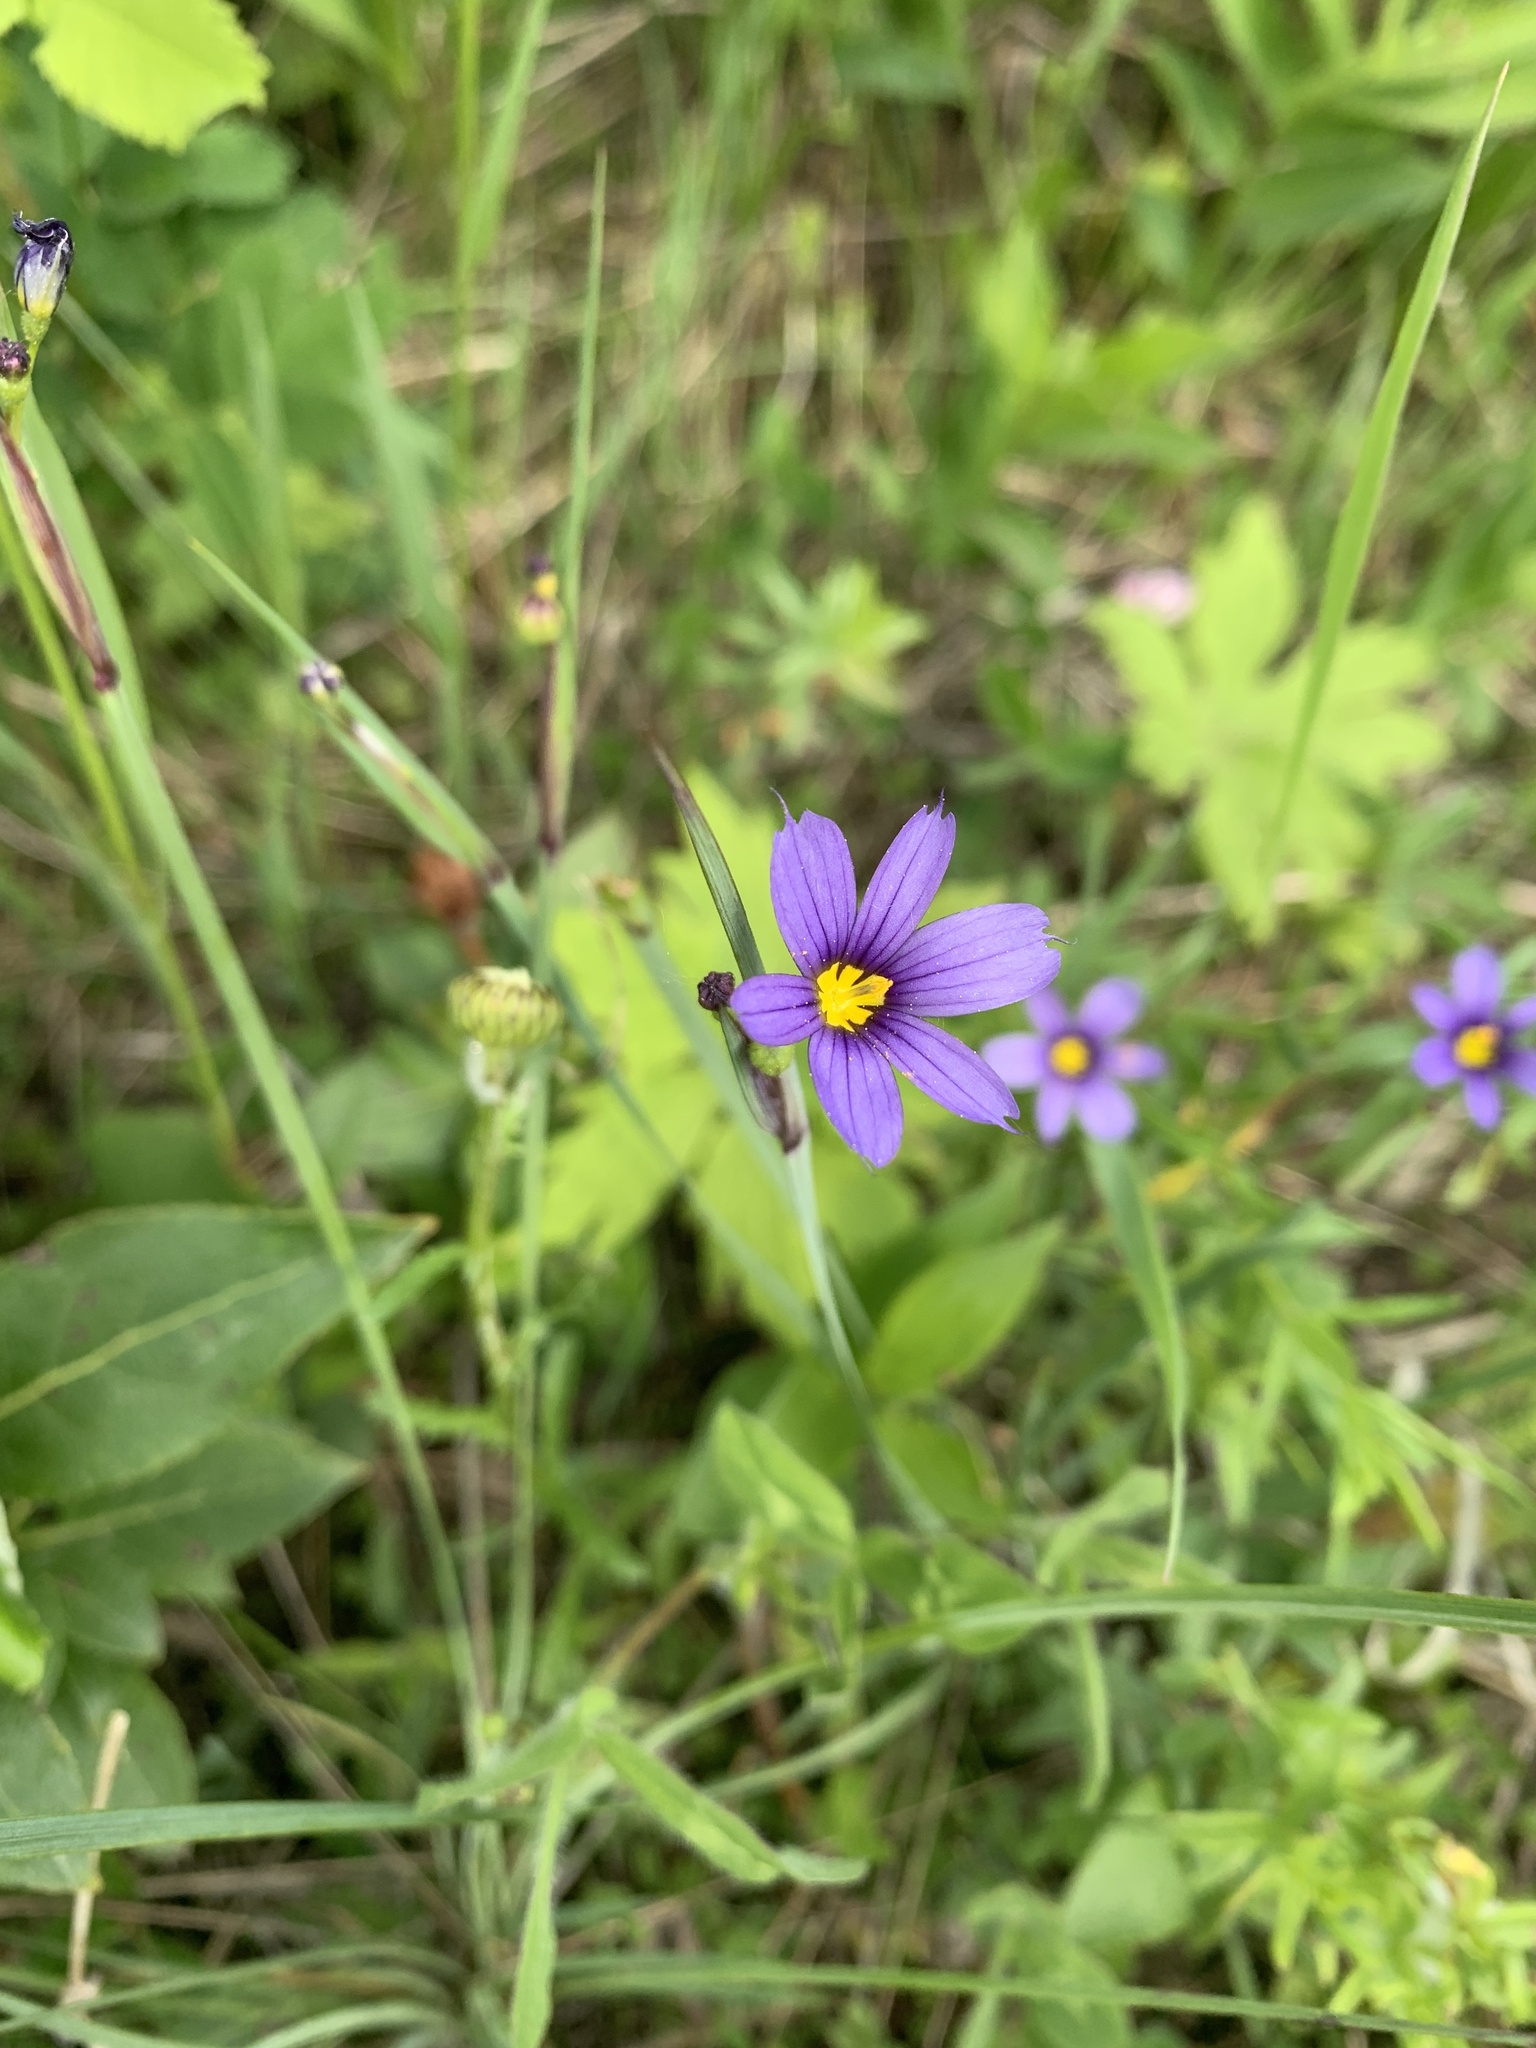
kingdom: Plantae
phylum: Tracheophyta
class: Liliopsida
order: Asparagales
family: Iridaceae
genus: Sisyrinchium
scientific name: Sisyrinchium montanum
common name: American blue-eyed-grass
